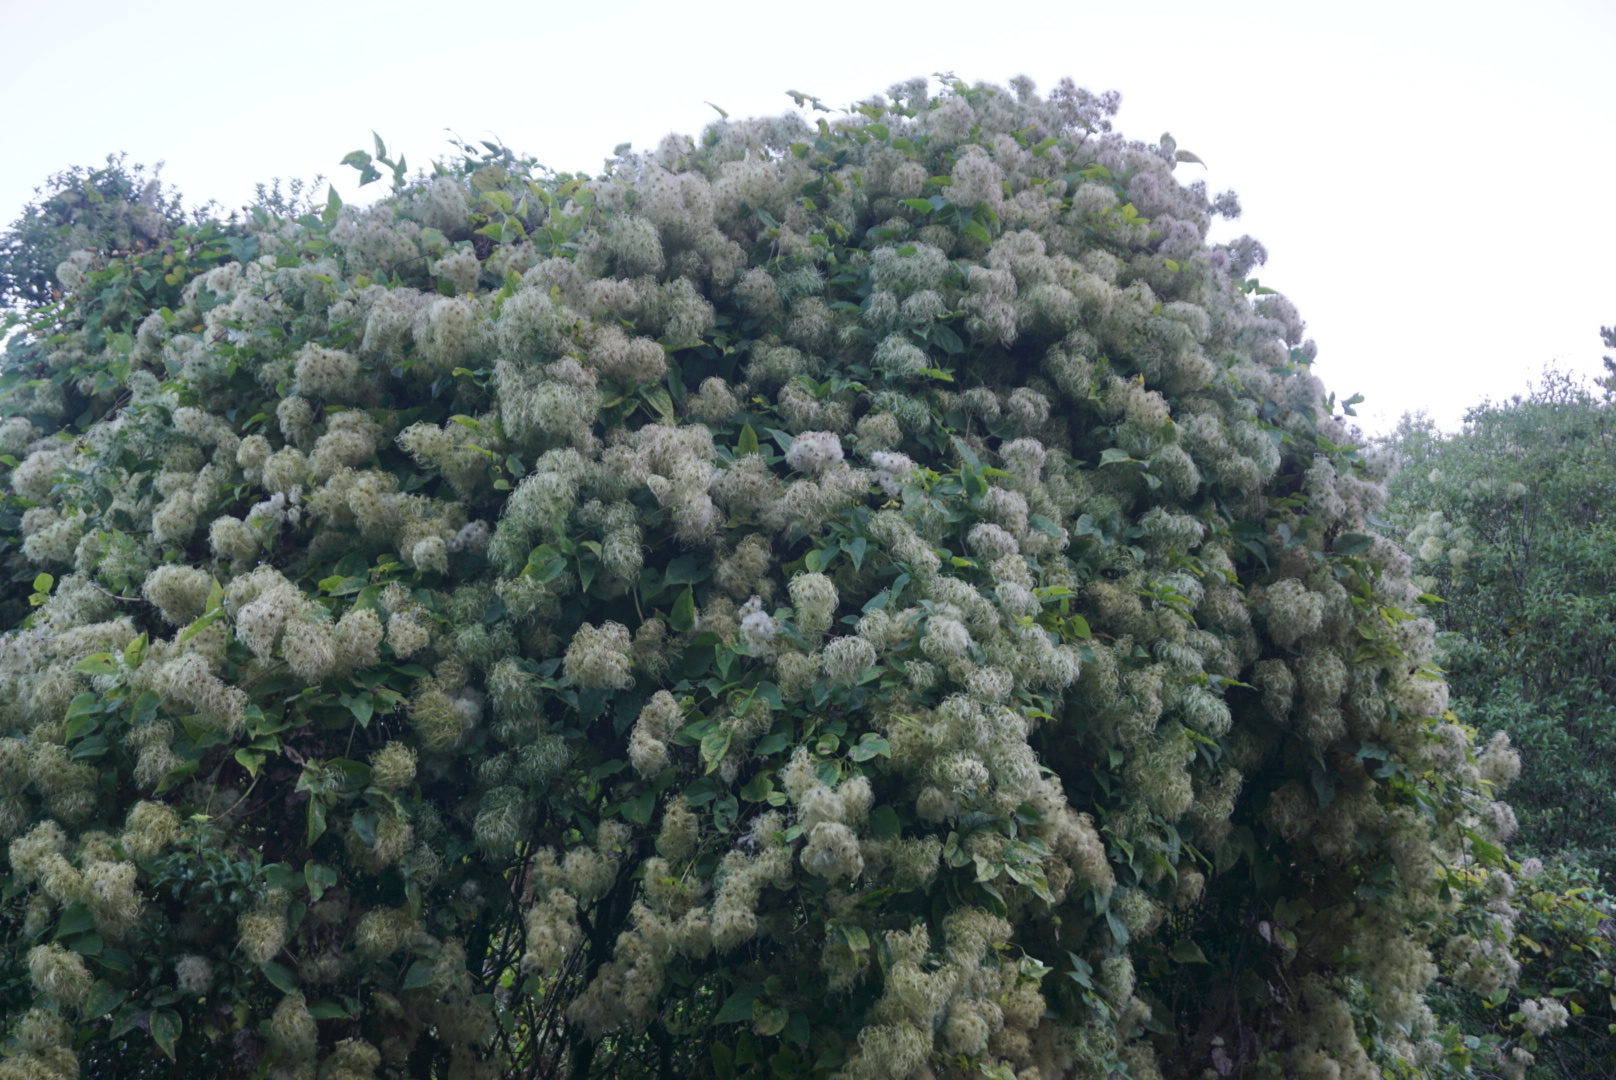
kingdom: Plantae
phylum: Tracheophyta
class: Magnoliopsida
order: Ranunculales
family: Ranunculaceae
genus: Clematis
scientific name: Clematis vitalba
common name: Evergreen clematis
